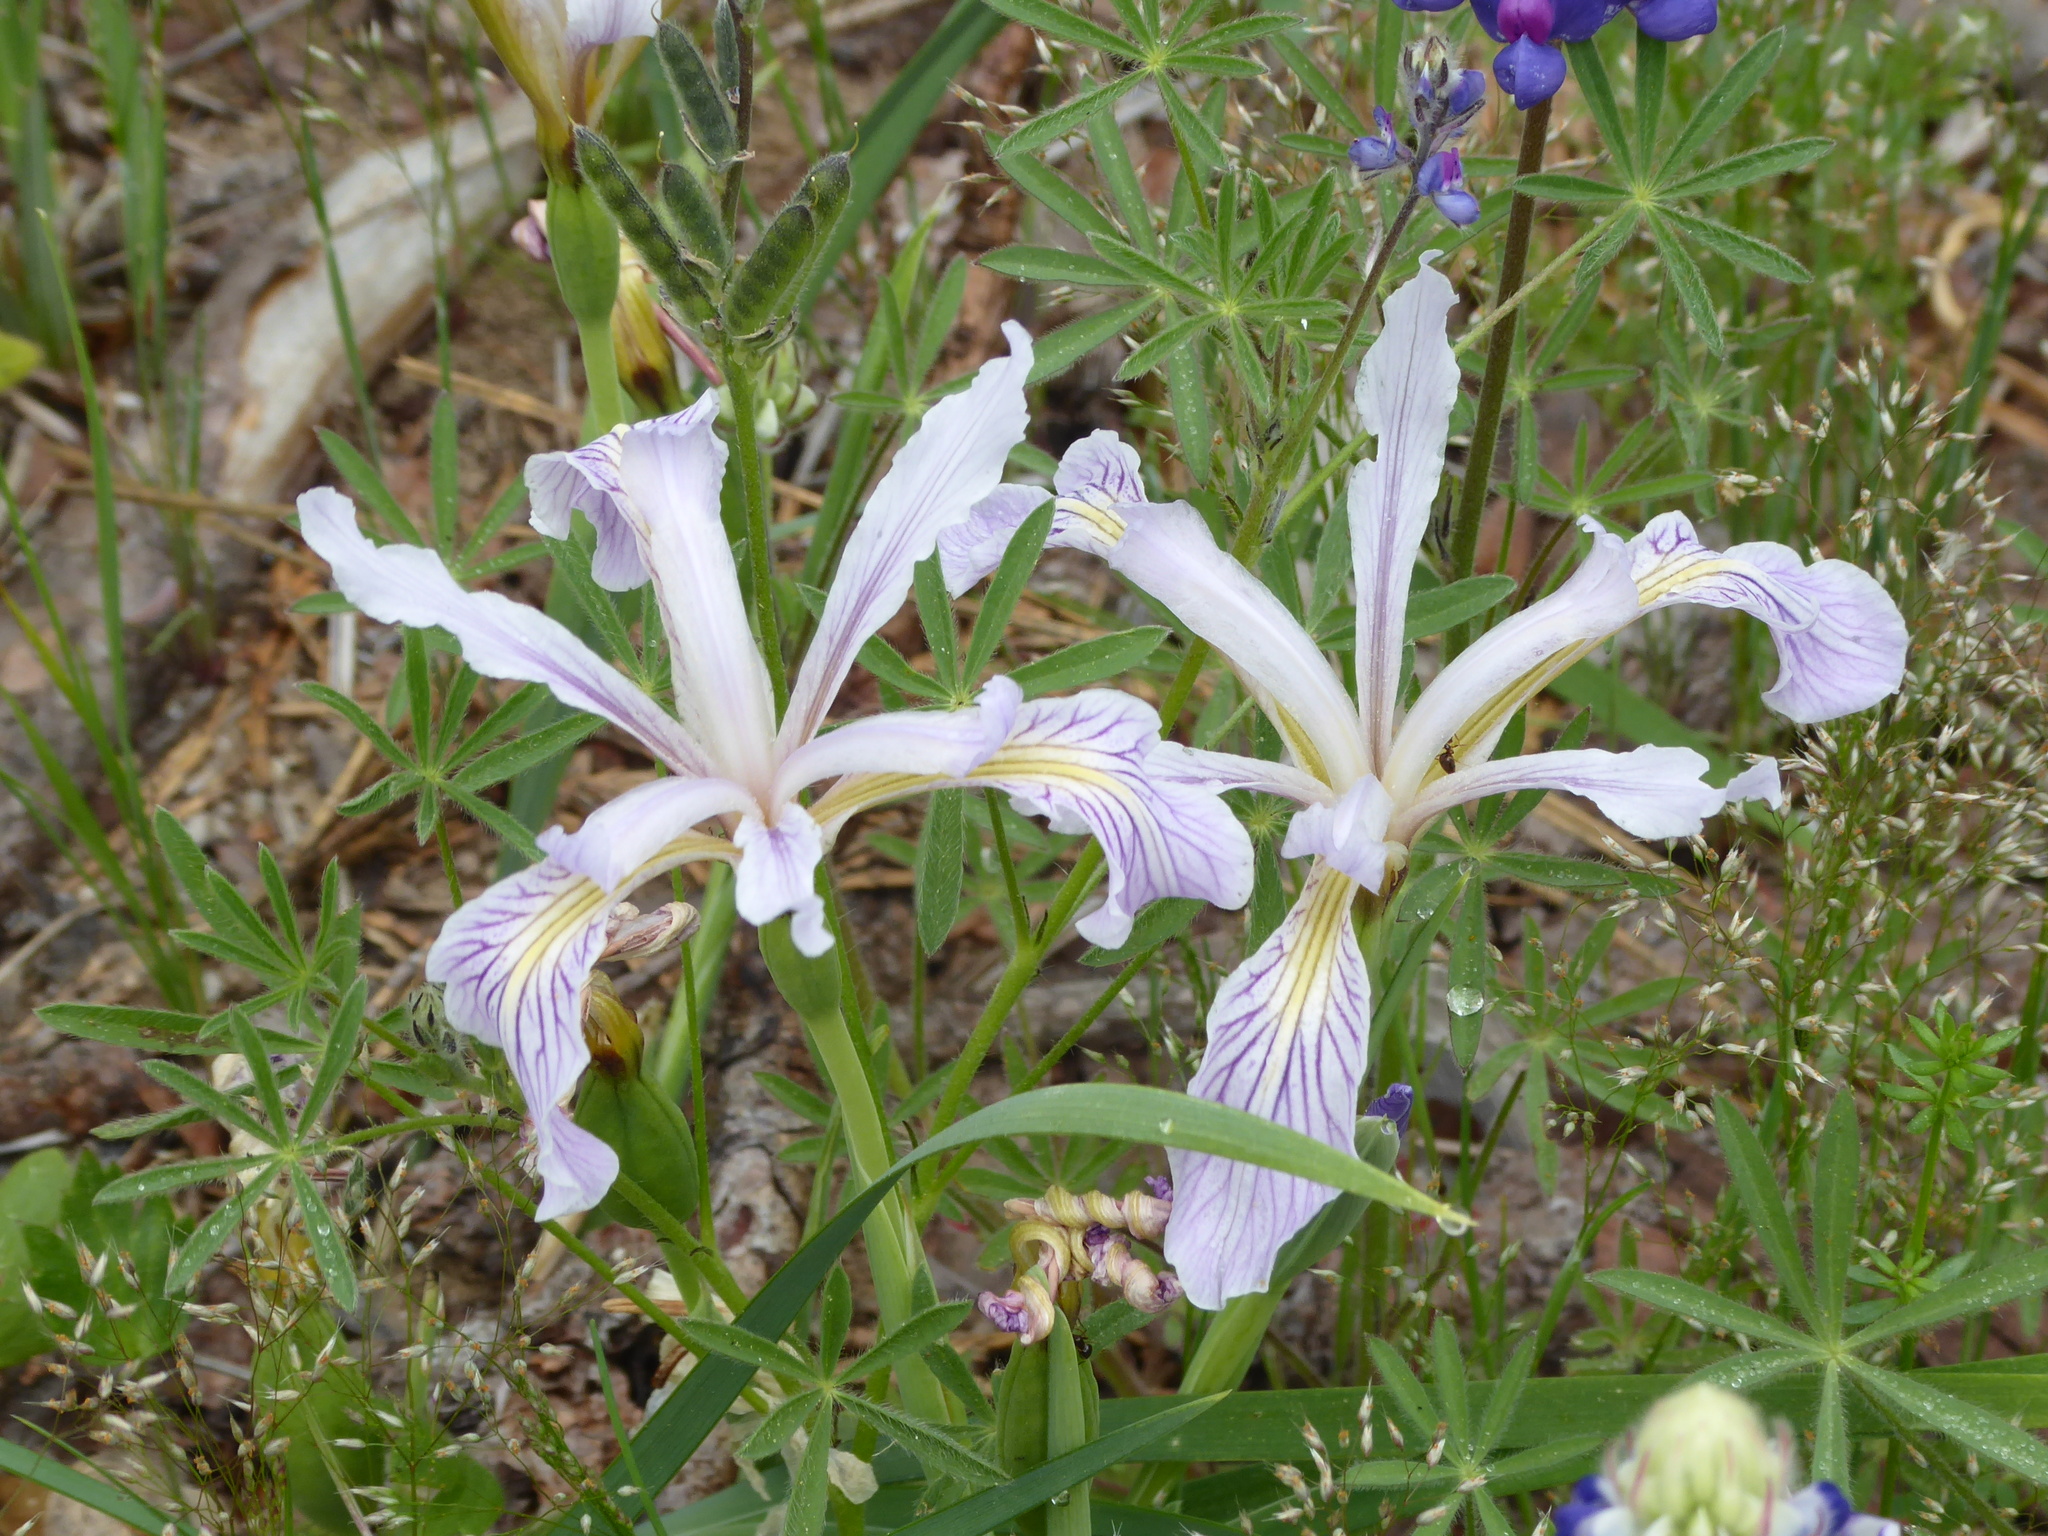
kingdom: Plantae
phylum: Tracheophyta
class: Liliopsida
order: Asparagales
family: Iridaceae
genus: Iris
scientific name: Iris hartwegii
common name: Sierra iris
